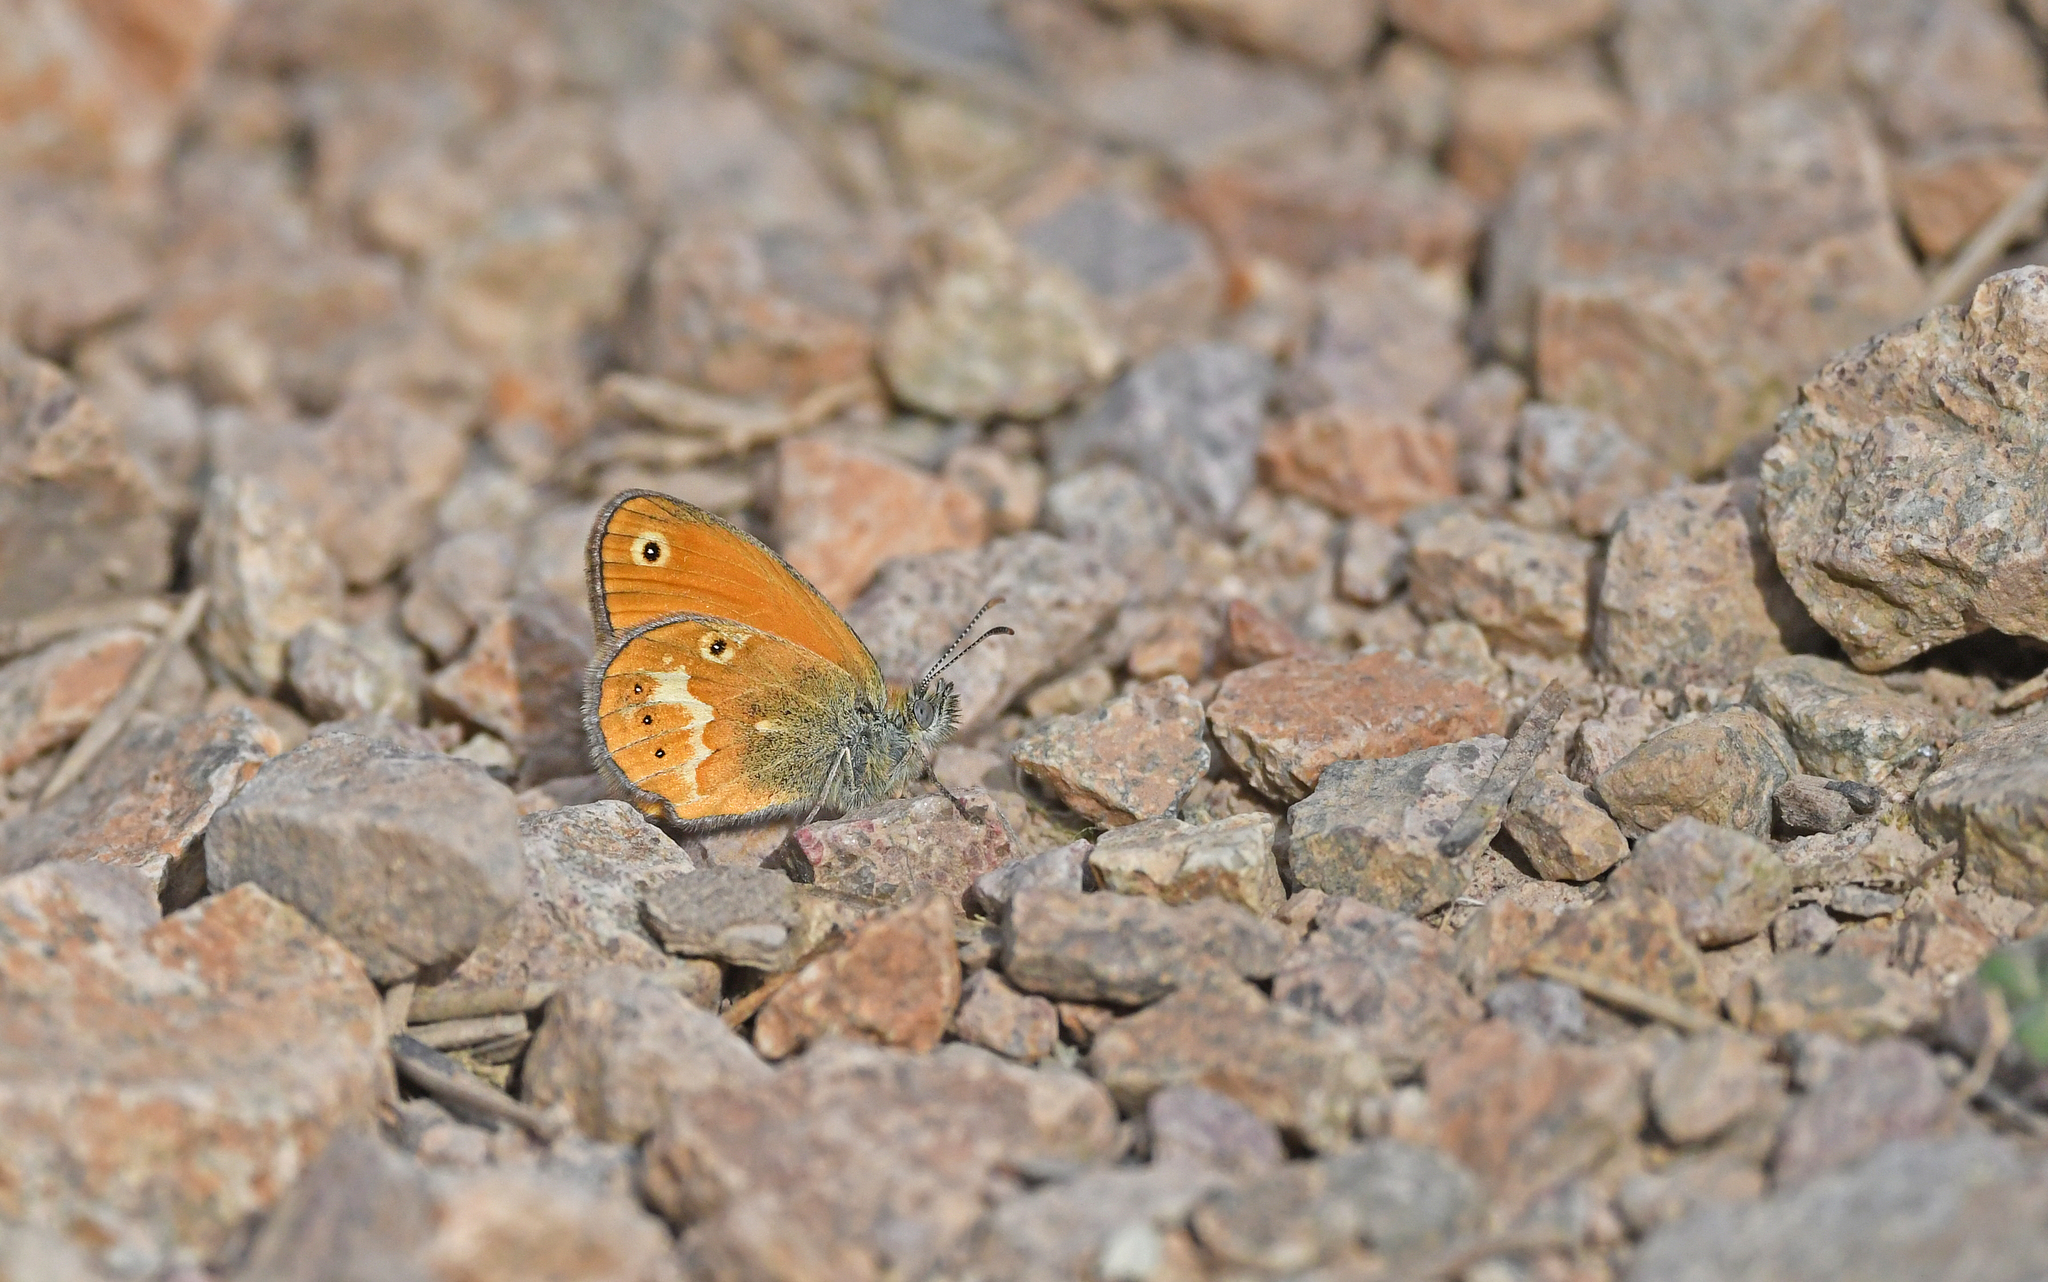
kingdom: Animalia
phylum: Arthropoda
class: Insecta
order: Lepidoptera
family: Nymphalidae
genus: Coenonympha
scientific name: Coenonympha corinna
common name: Corsican heath
